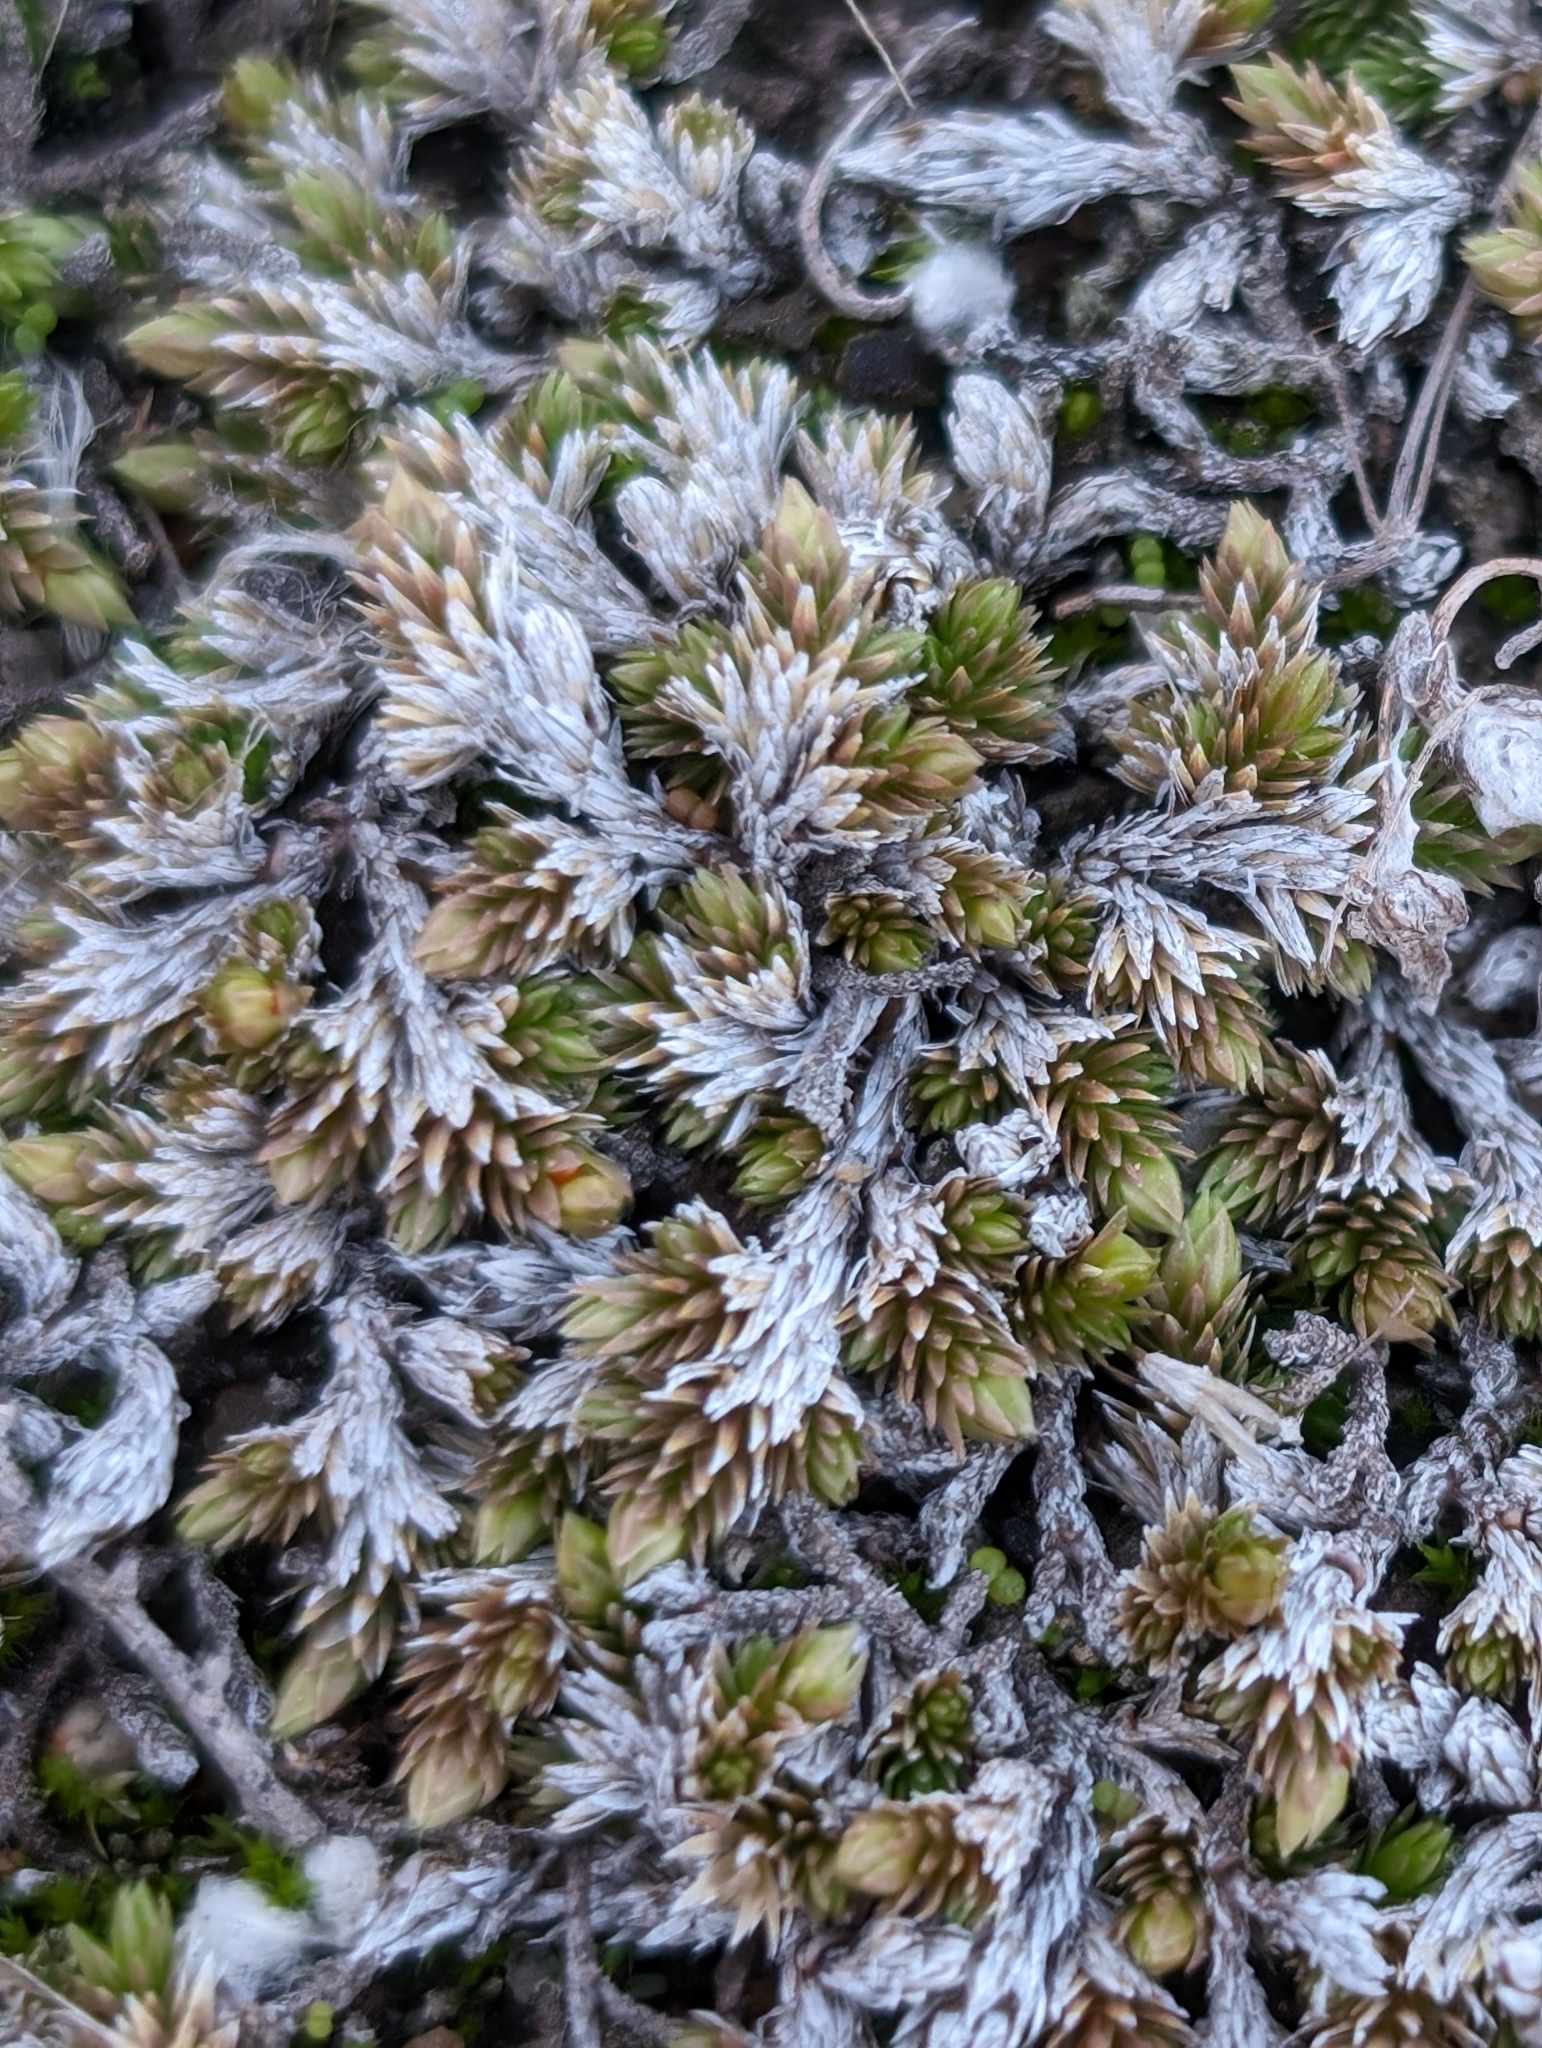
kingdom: Plantae
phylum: Tracheophyta
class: Lycopodiopsida
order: Selaginellales
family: Selaginellaceae
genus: Selaginella
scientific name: Selaginella cinerascens
